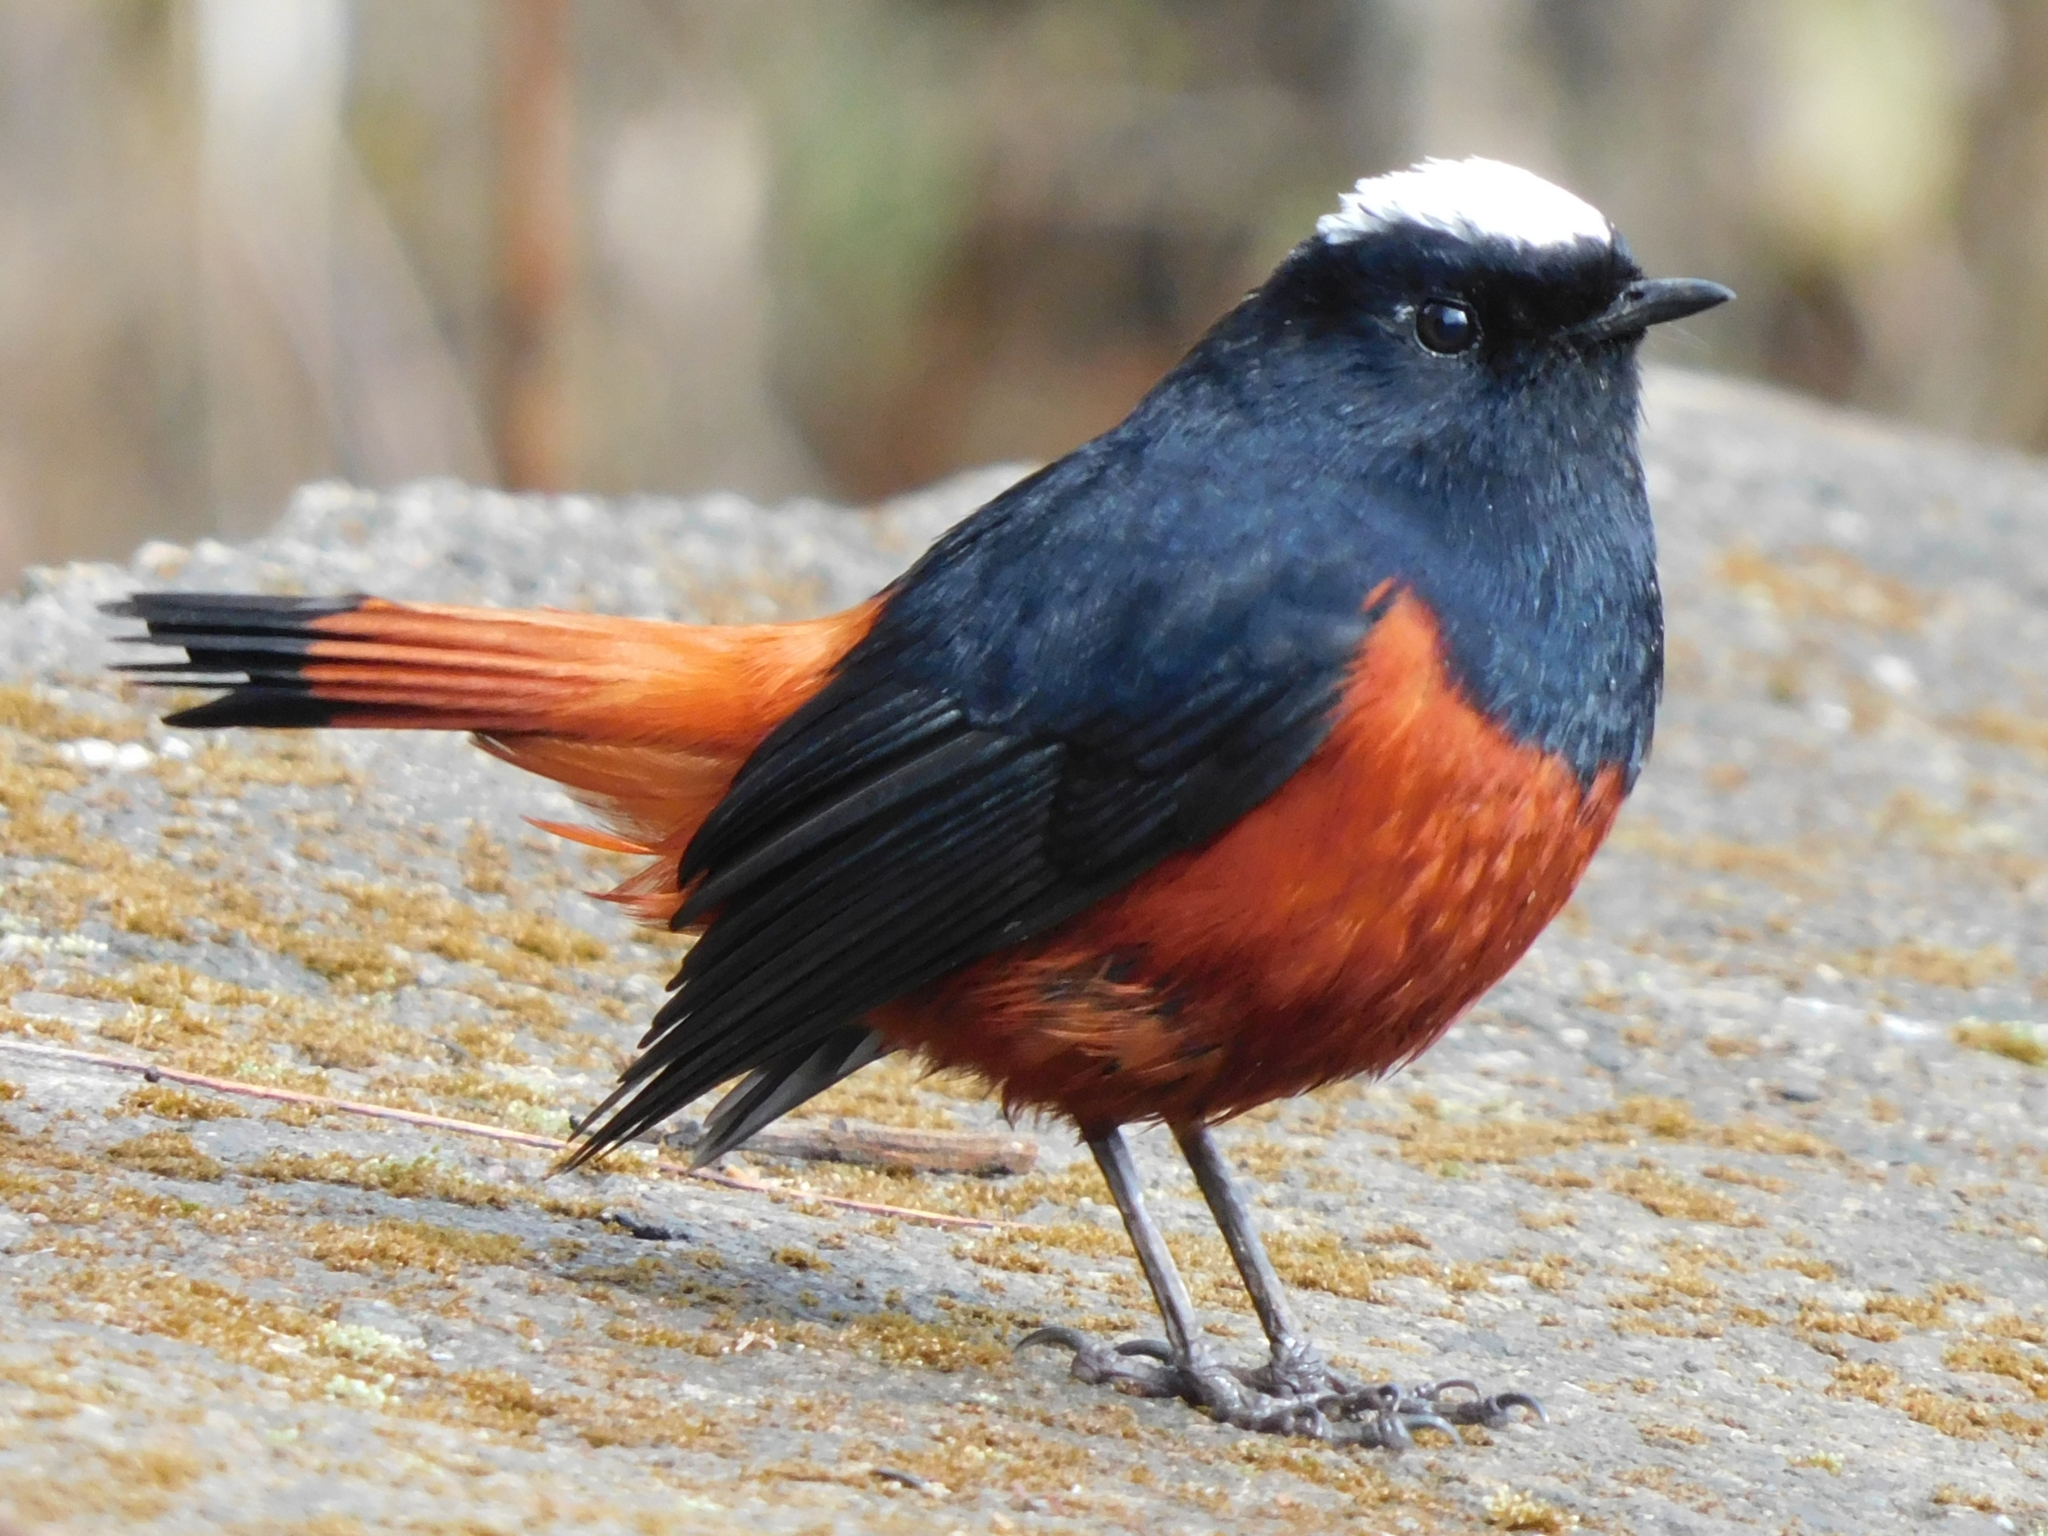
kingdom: Animalia
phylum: Chordata
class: Aves
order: Passeriformes
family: Muscicapidae
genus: Chaimarrornis
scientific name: Chaimarrornis leucocephalus
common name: White-capped redstart
